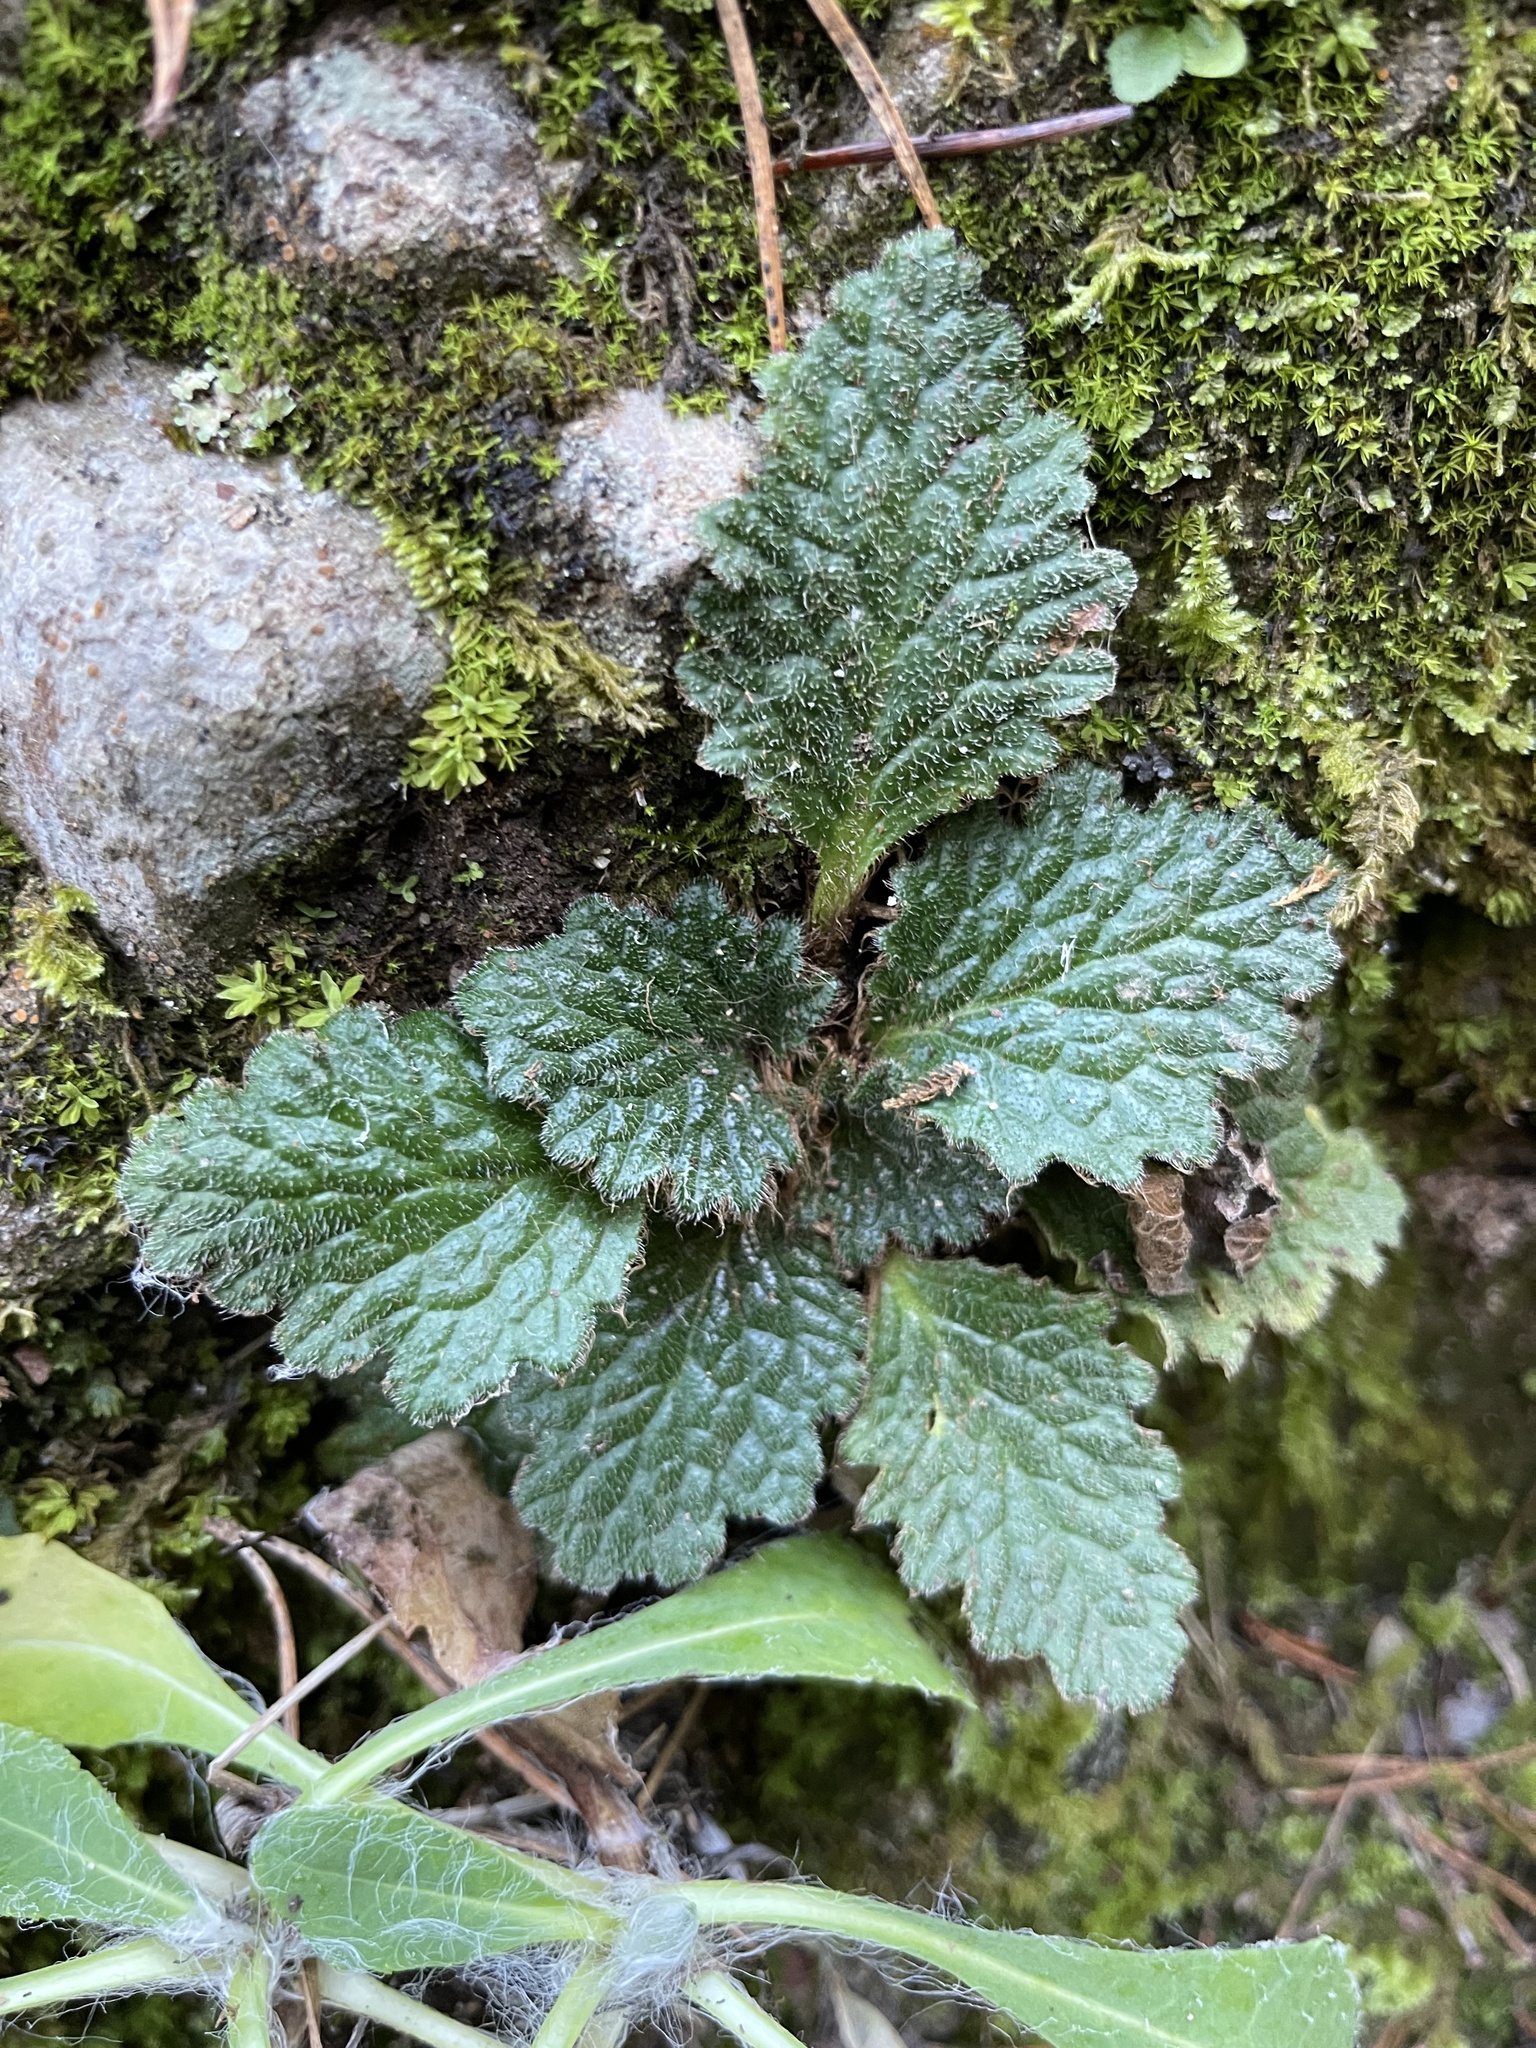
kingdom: Plantae
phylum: Tracheophyta
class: Magnoliopsida
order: Lamiales
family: Gesneriaceae
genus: Ramonda
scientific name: Ramonda myconi
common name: Pyrenean-violet
